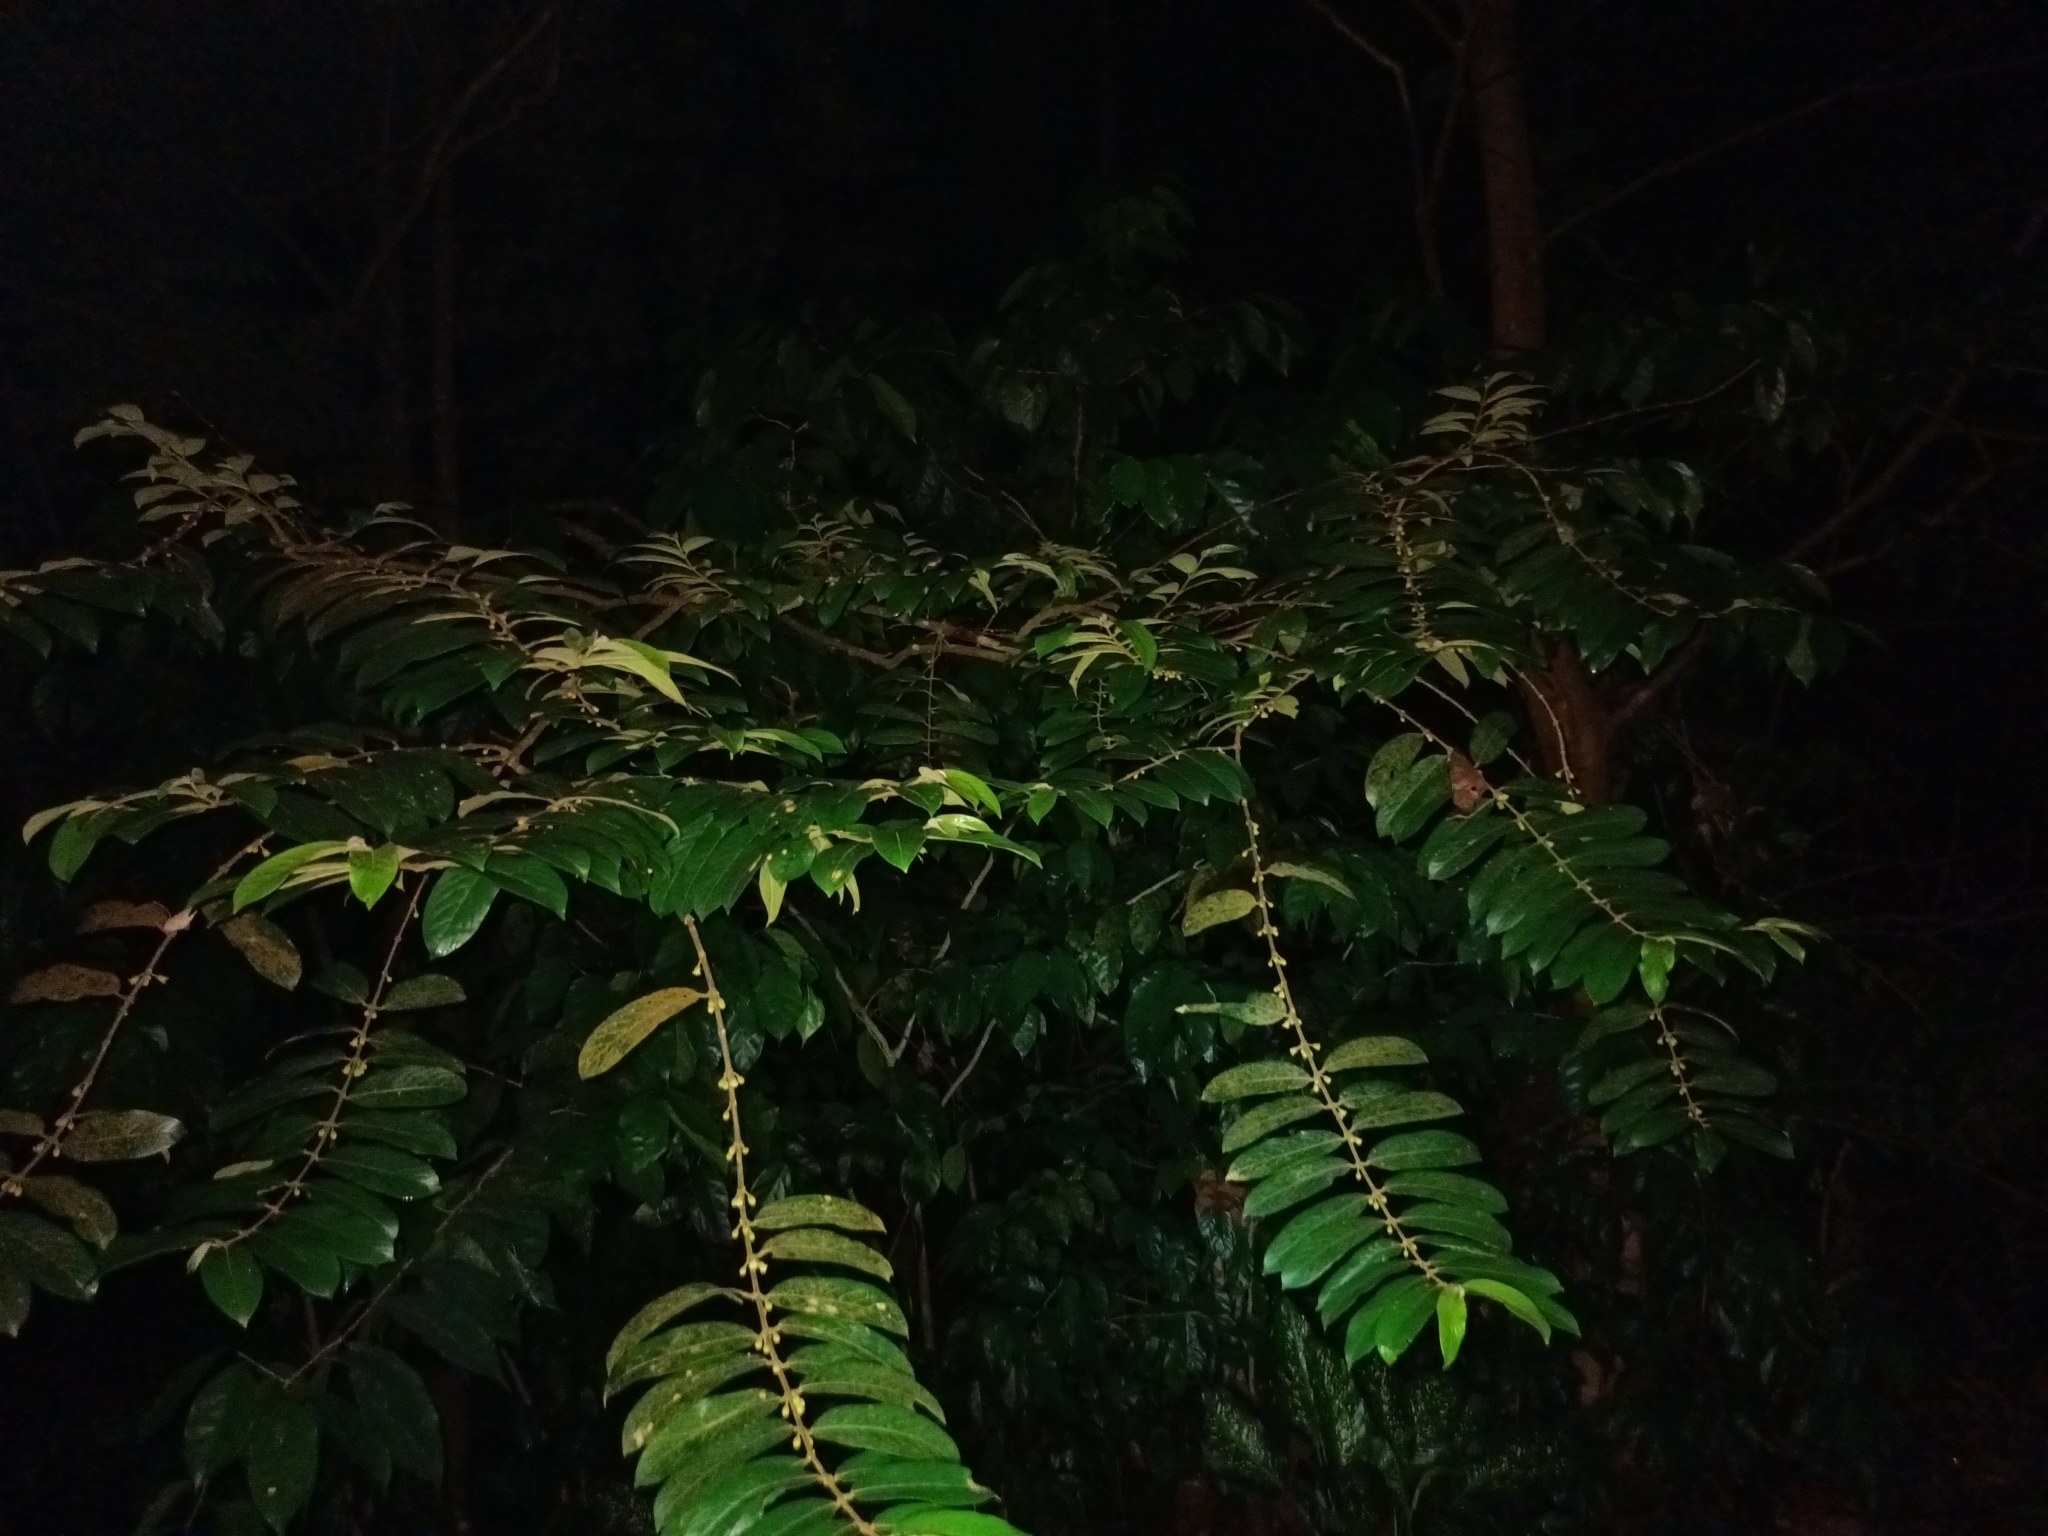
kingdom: Plantae
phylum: Tracheophyta
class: Magnoliopsida
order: Malpighiales
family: Rhizophoraceae
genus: Pellacalyx
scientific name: Pellacalyx axillaris
